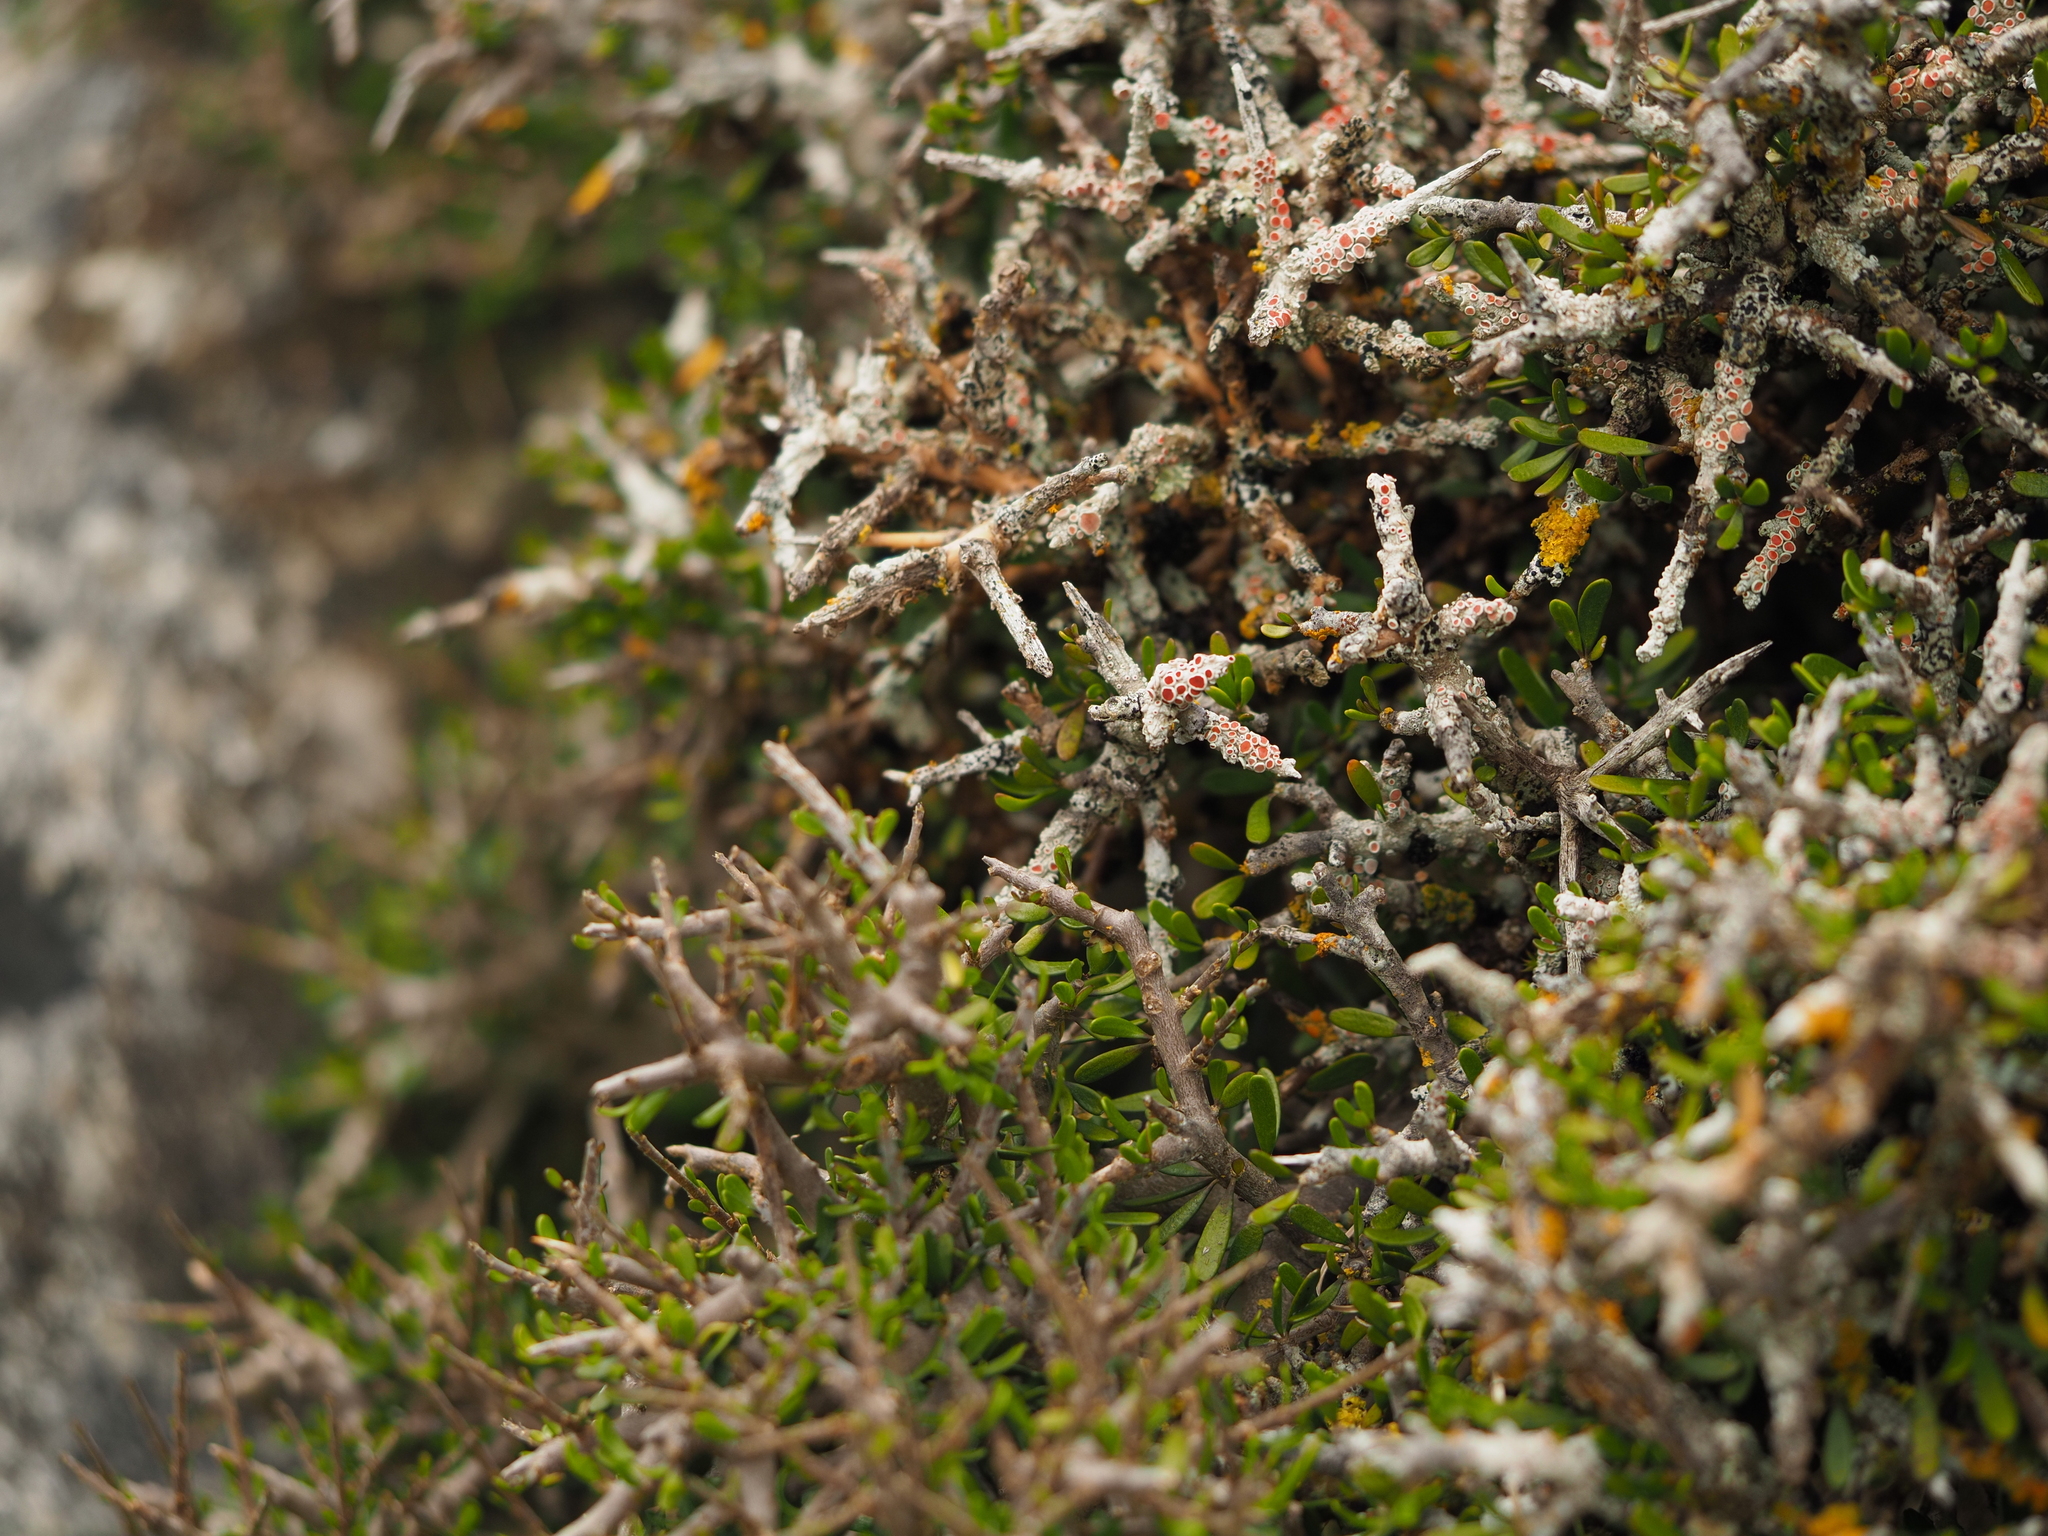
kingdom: Plantae
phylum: Tracheophyta
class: Magnoliopsida
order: Malpighiales
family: Violaceae
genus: Melicytus
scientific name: Melicytus alpinus
